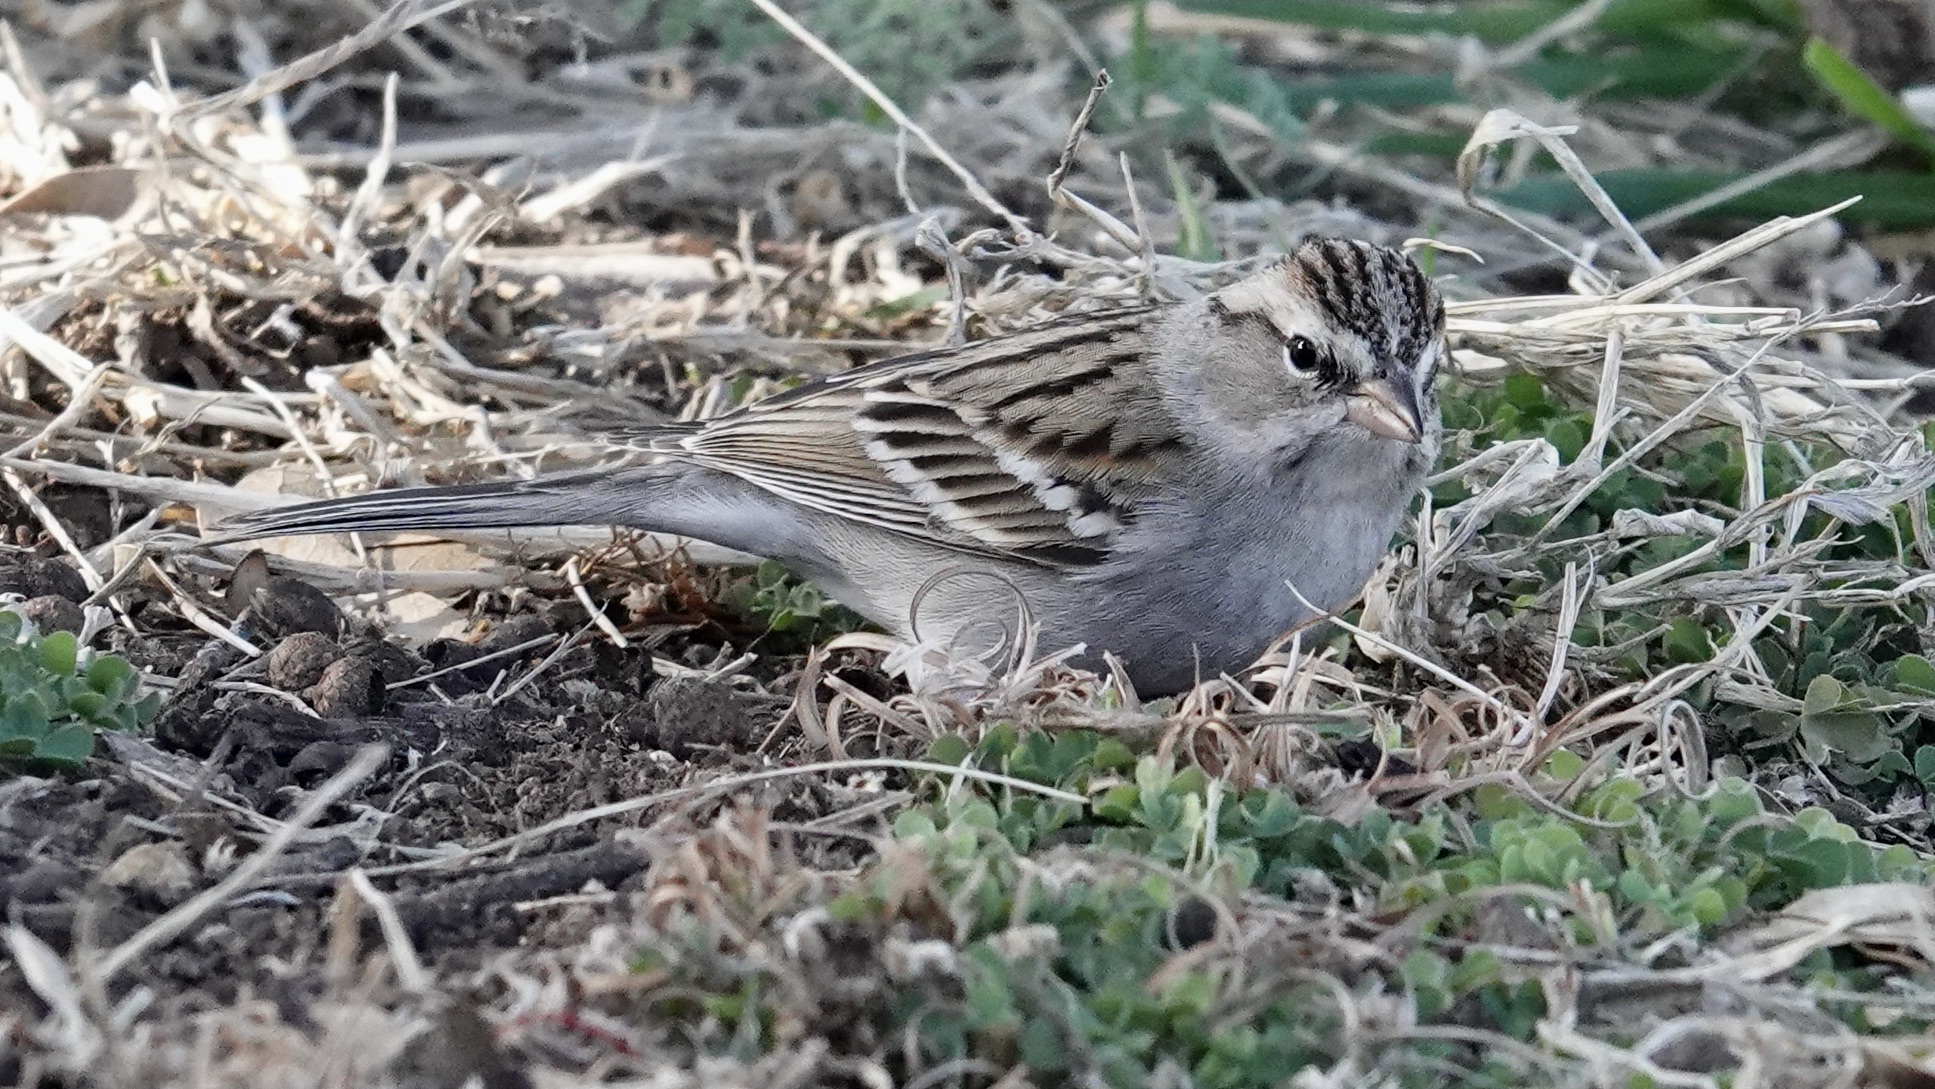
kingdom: Animalia
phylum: Chordata
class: Aves
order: Passeriformes
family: Passerellidae
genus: Spizella
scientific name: Spizella passerina
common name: Chipping sparrow
